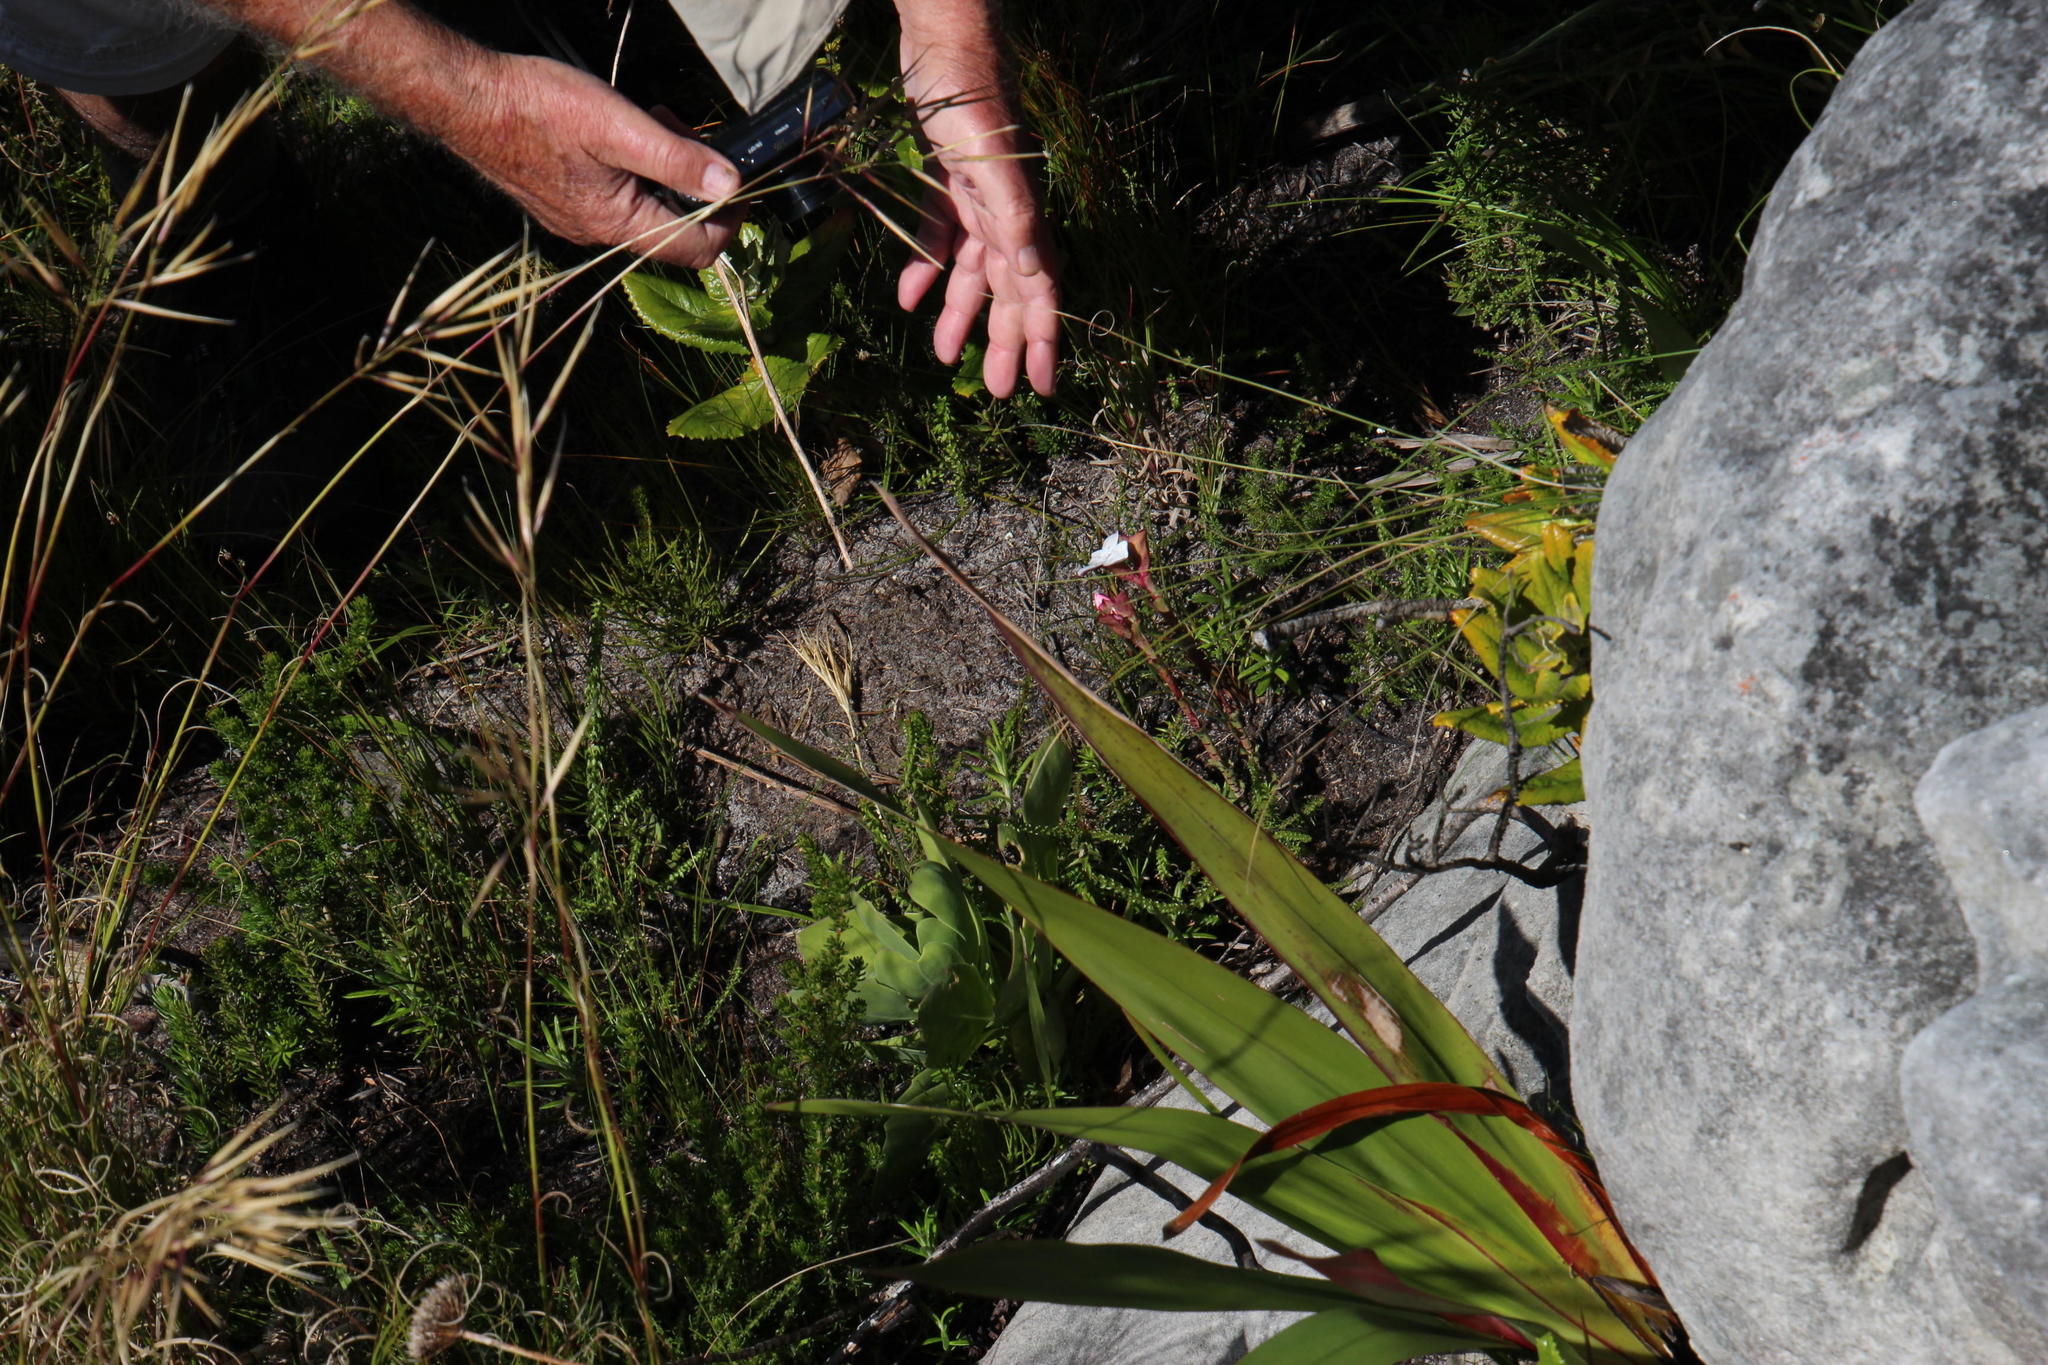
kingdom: Plantae
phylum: Tracheophyta
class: Liliopsida
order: Asparagales
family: Orchidaceae
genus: Disa
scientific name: Disa fasciata
